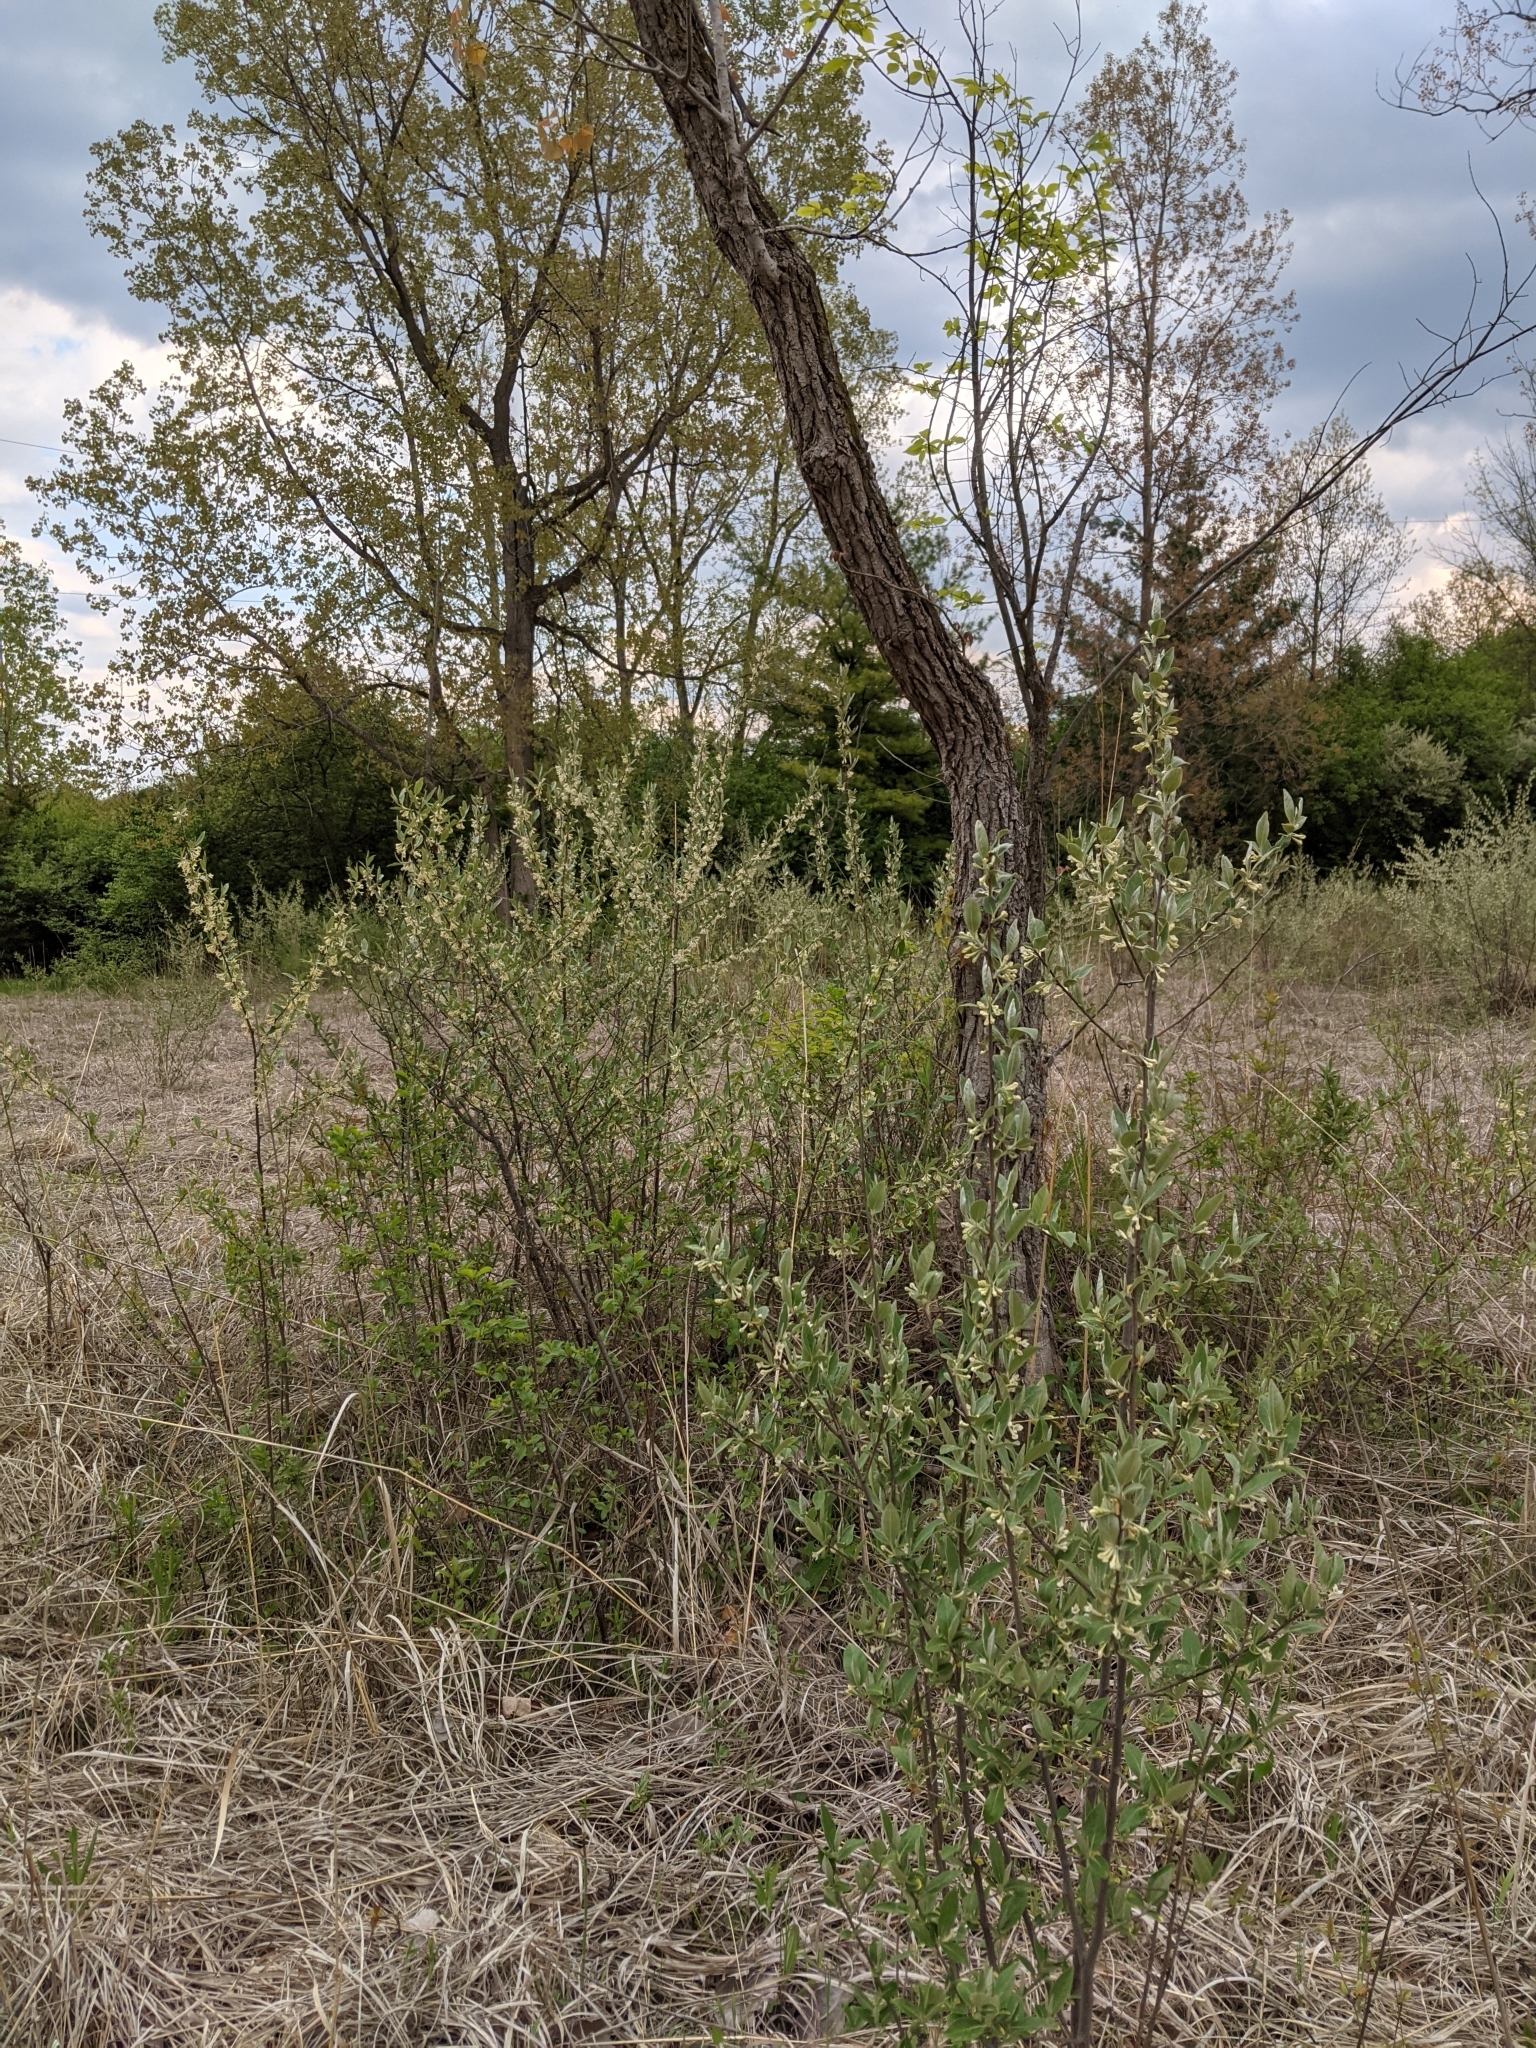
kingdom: Plantae
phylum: Tracheophyta
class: Magnoliopsida
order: Rosales
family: Elaeagnaceae
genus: Elaeagnus
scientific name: Elaeagnus umbellata
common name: Autumn olive
